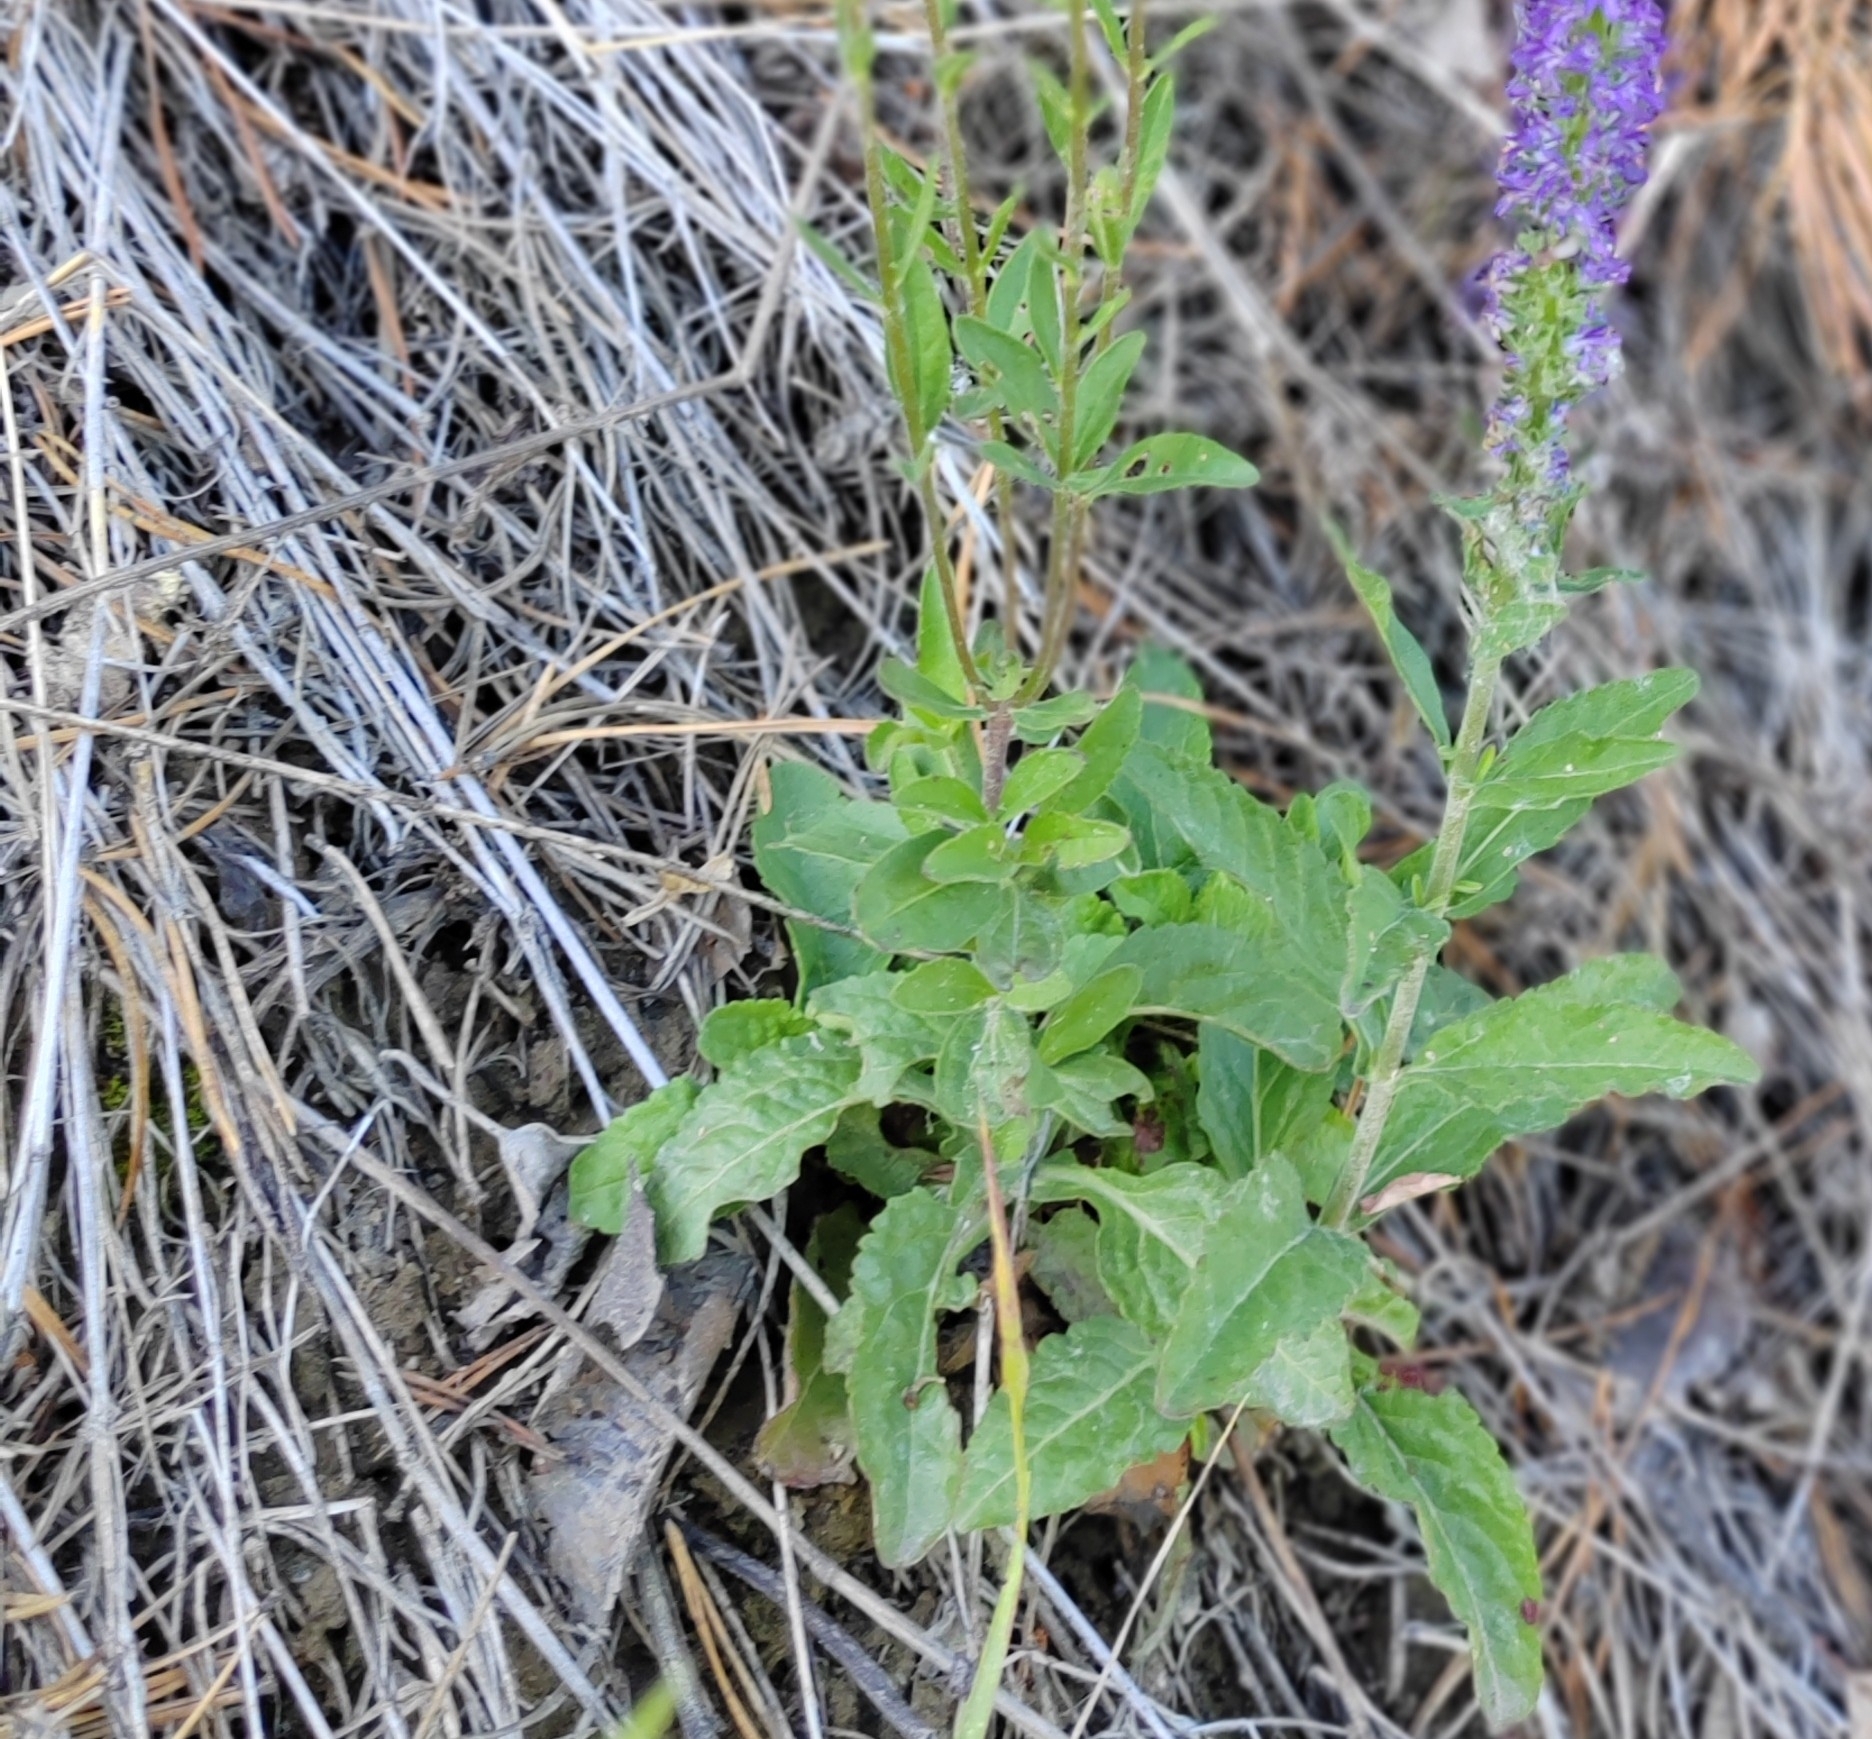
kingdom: Plantae
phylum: Tracheophyta
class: Magnoliopsida
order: Lamiales
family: Plantaginaceae
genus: Veronica
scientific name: Veronica spicata
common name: Spiked speedwell
